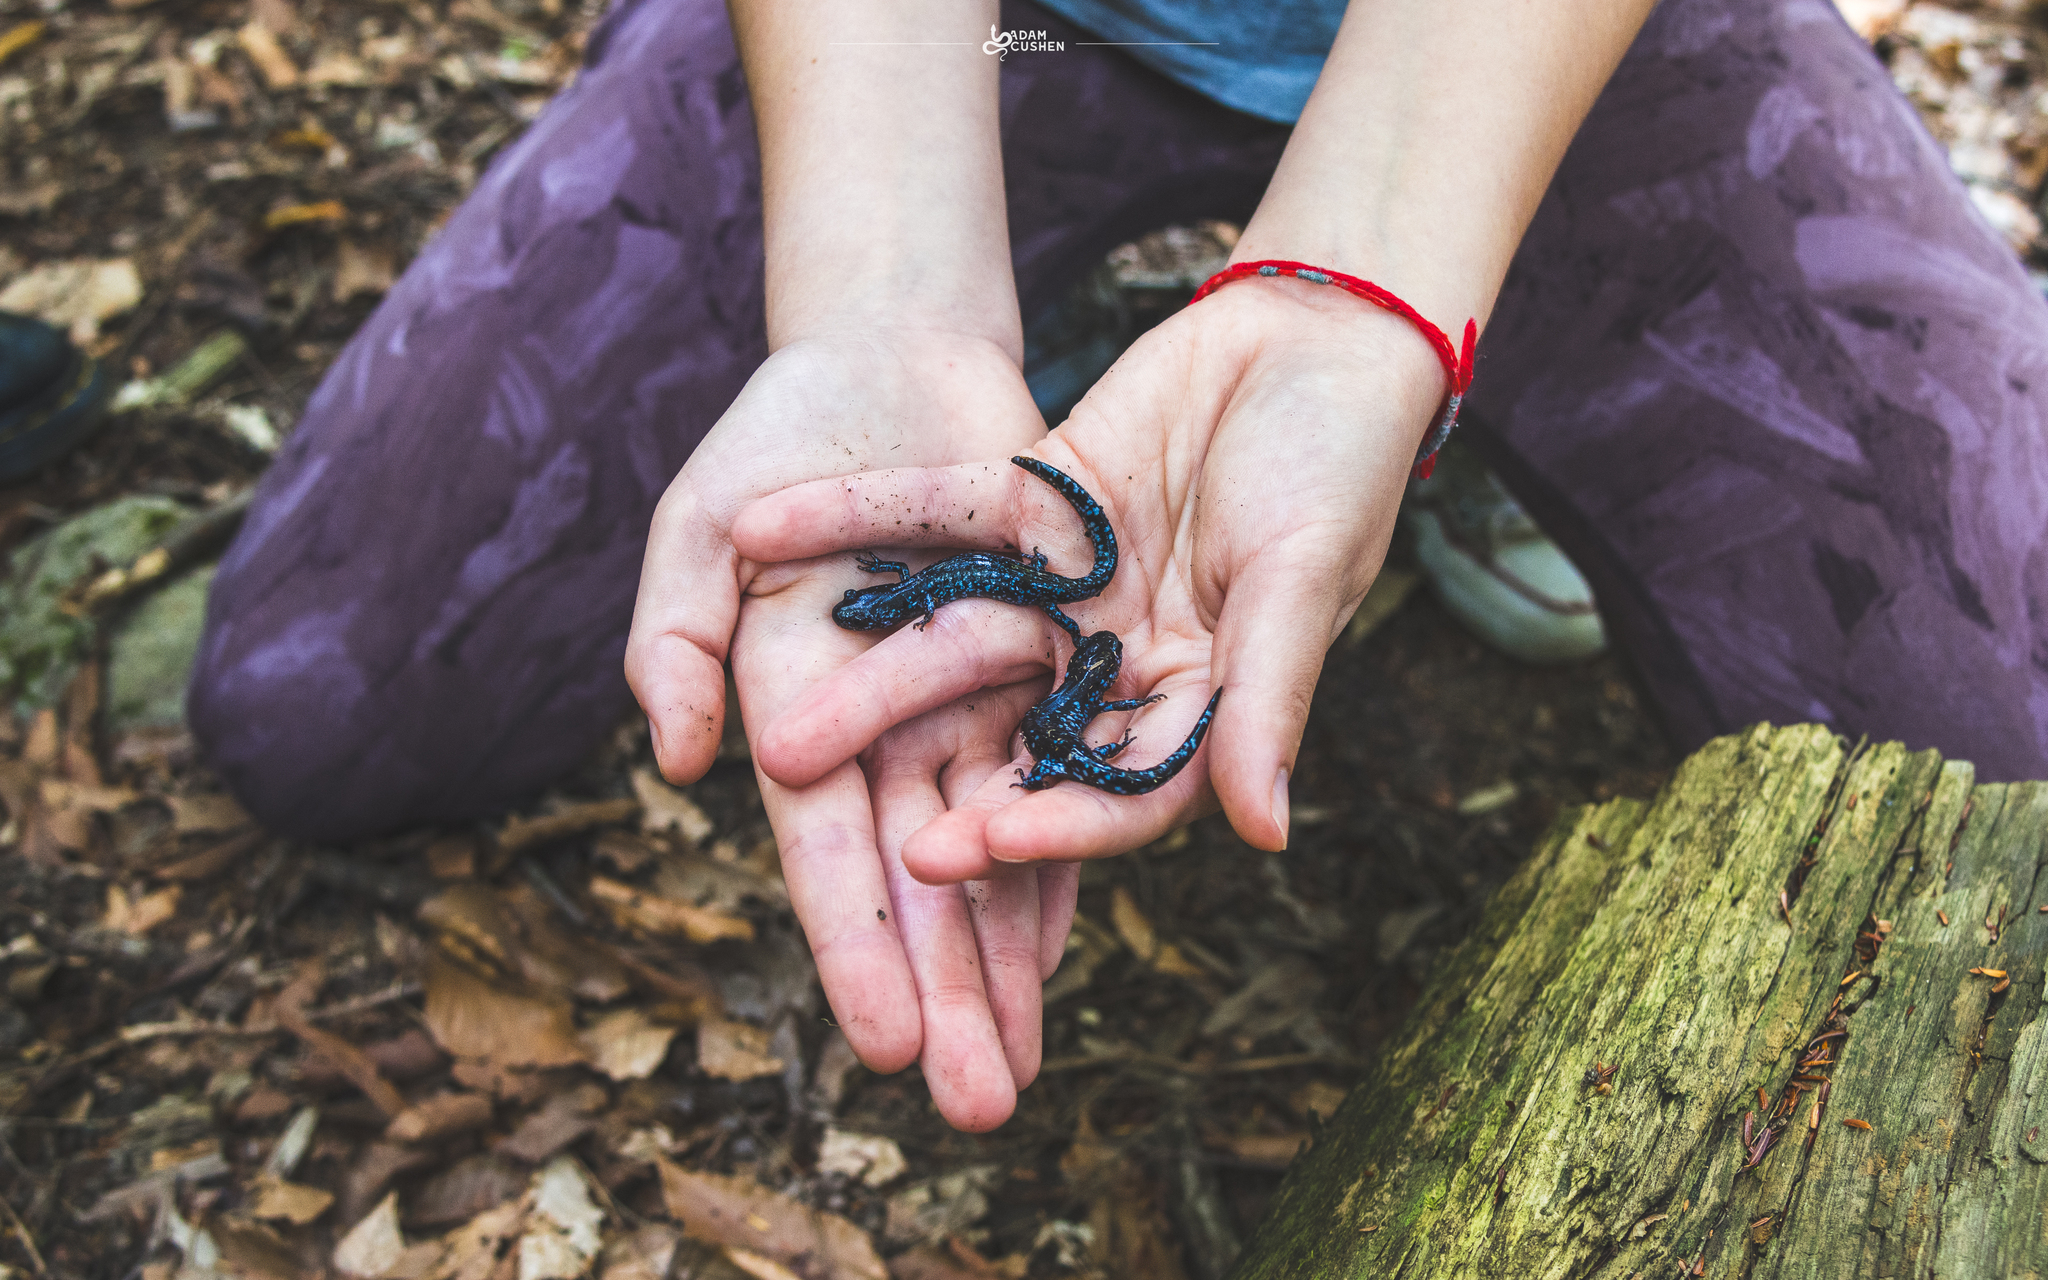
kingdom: Animalia
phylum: Chordata
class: Amphibia
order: Caudata
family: Ambystomatidae
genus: Ambystoma
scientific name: Ambystoma laterale
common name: Blue-spotted salamander
